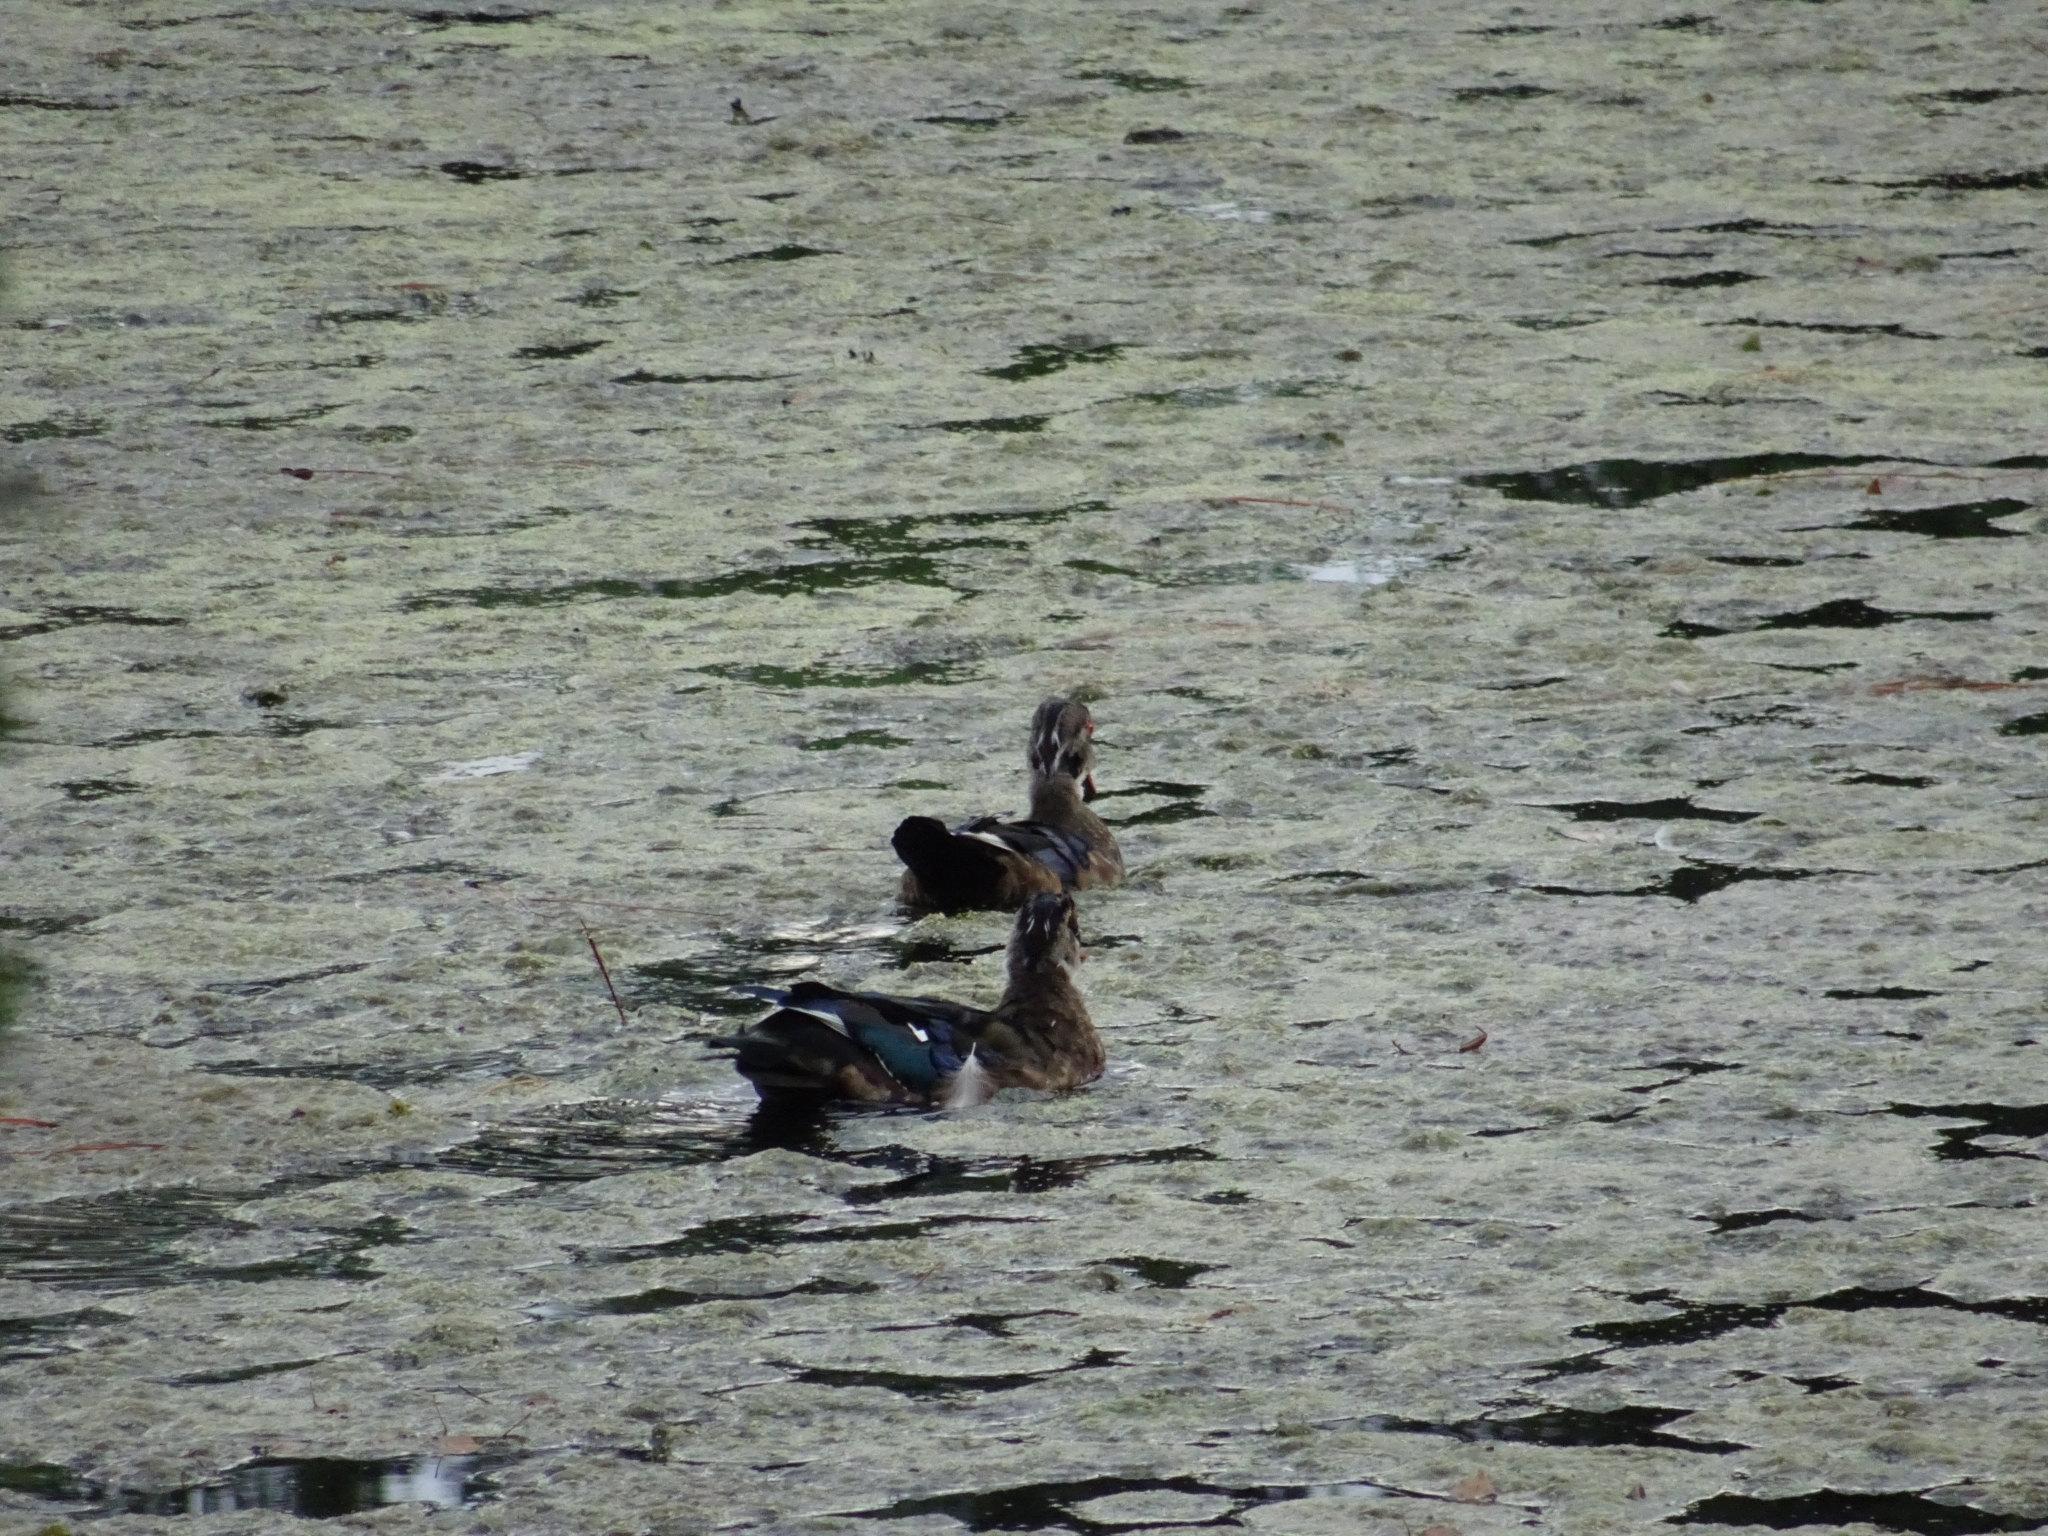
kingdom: Animalia
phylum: Chordata
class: Aves
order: Anseriformes
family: Anatidae
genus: Aix
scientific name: Aix sponsa
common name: Wood duck
